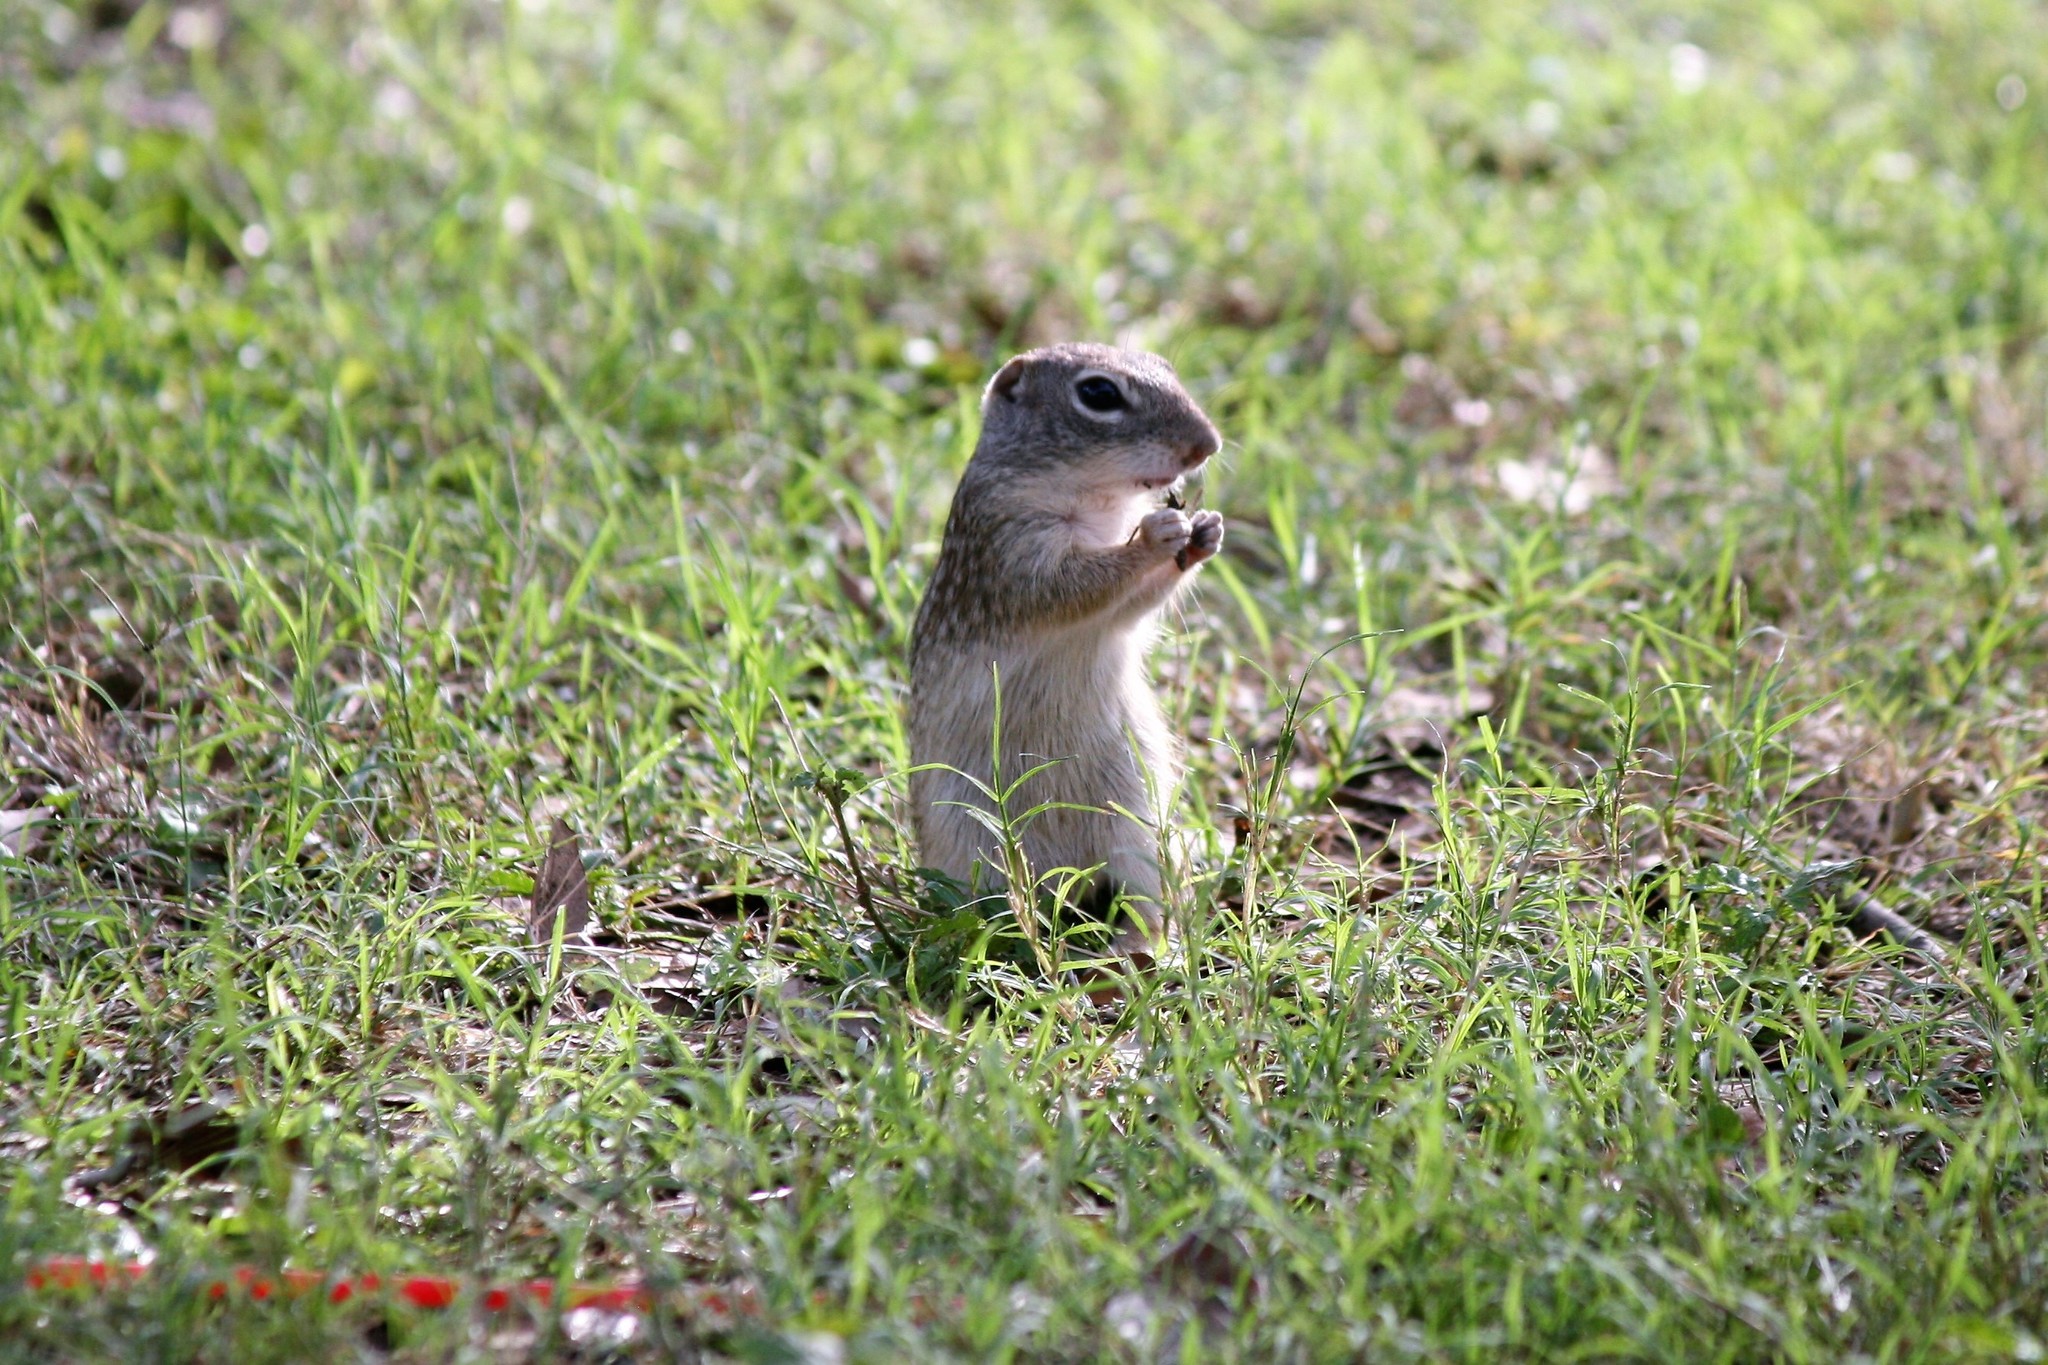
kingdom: Animalia
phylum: Chordata
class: Mammalia
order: Rodentia
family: Sciuridae
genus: Ictidomys
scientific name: Ictidomys parvidens
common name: Rio grande ground squirrel
